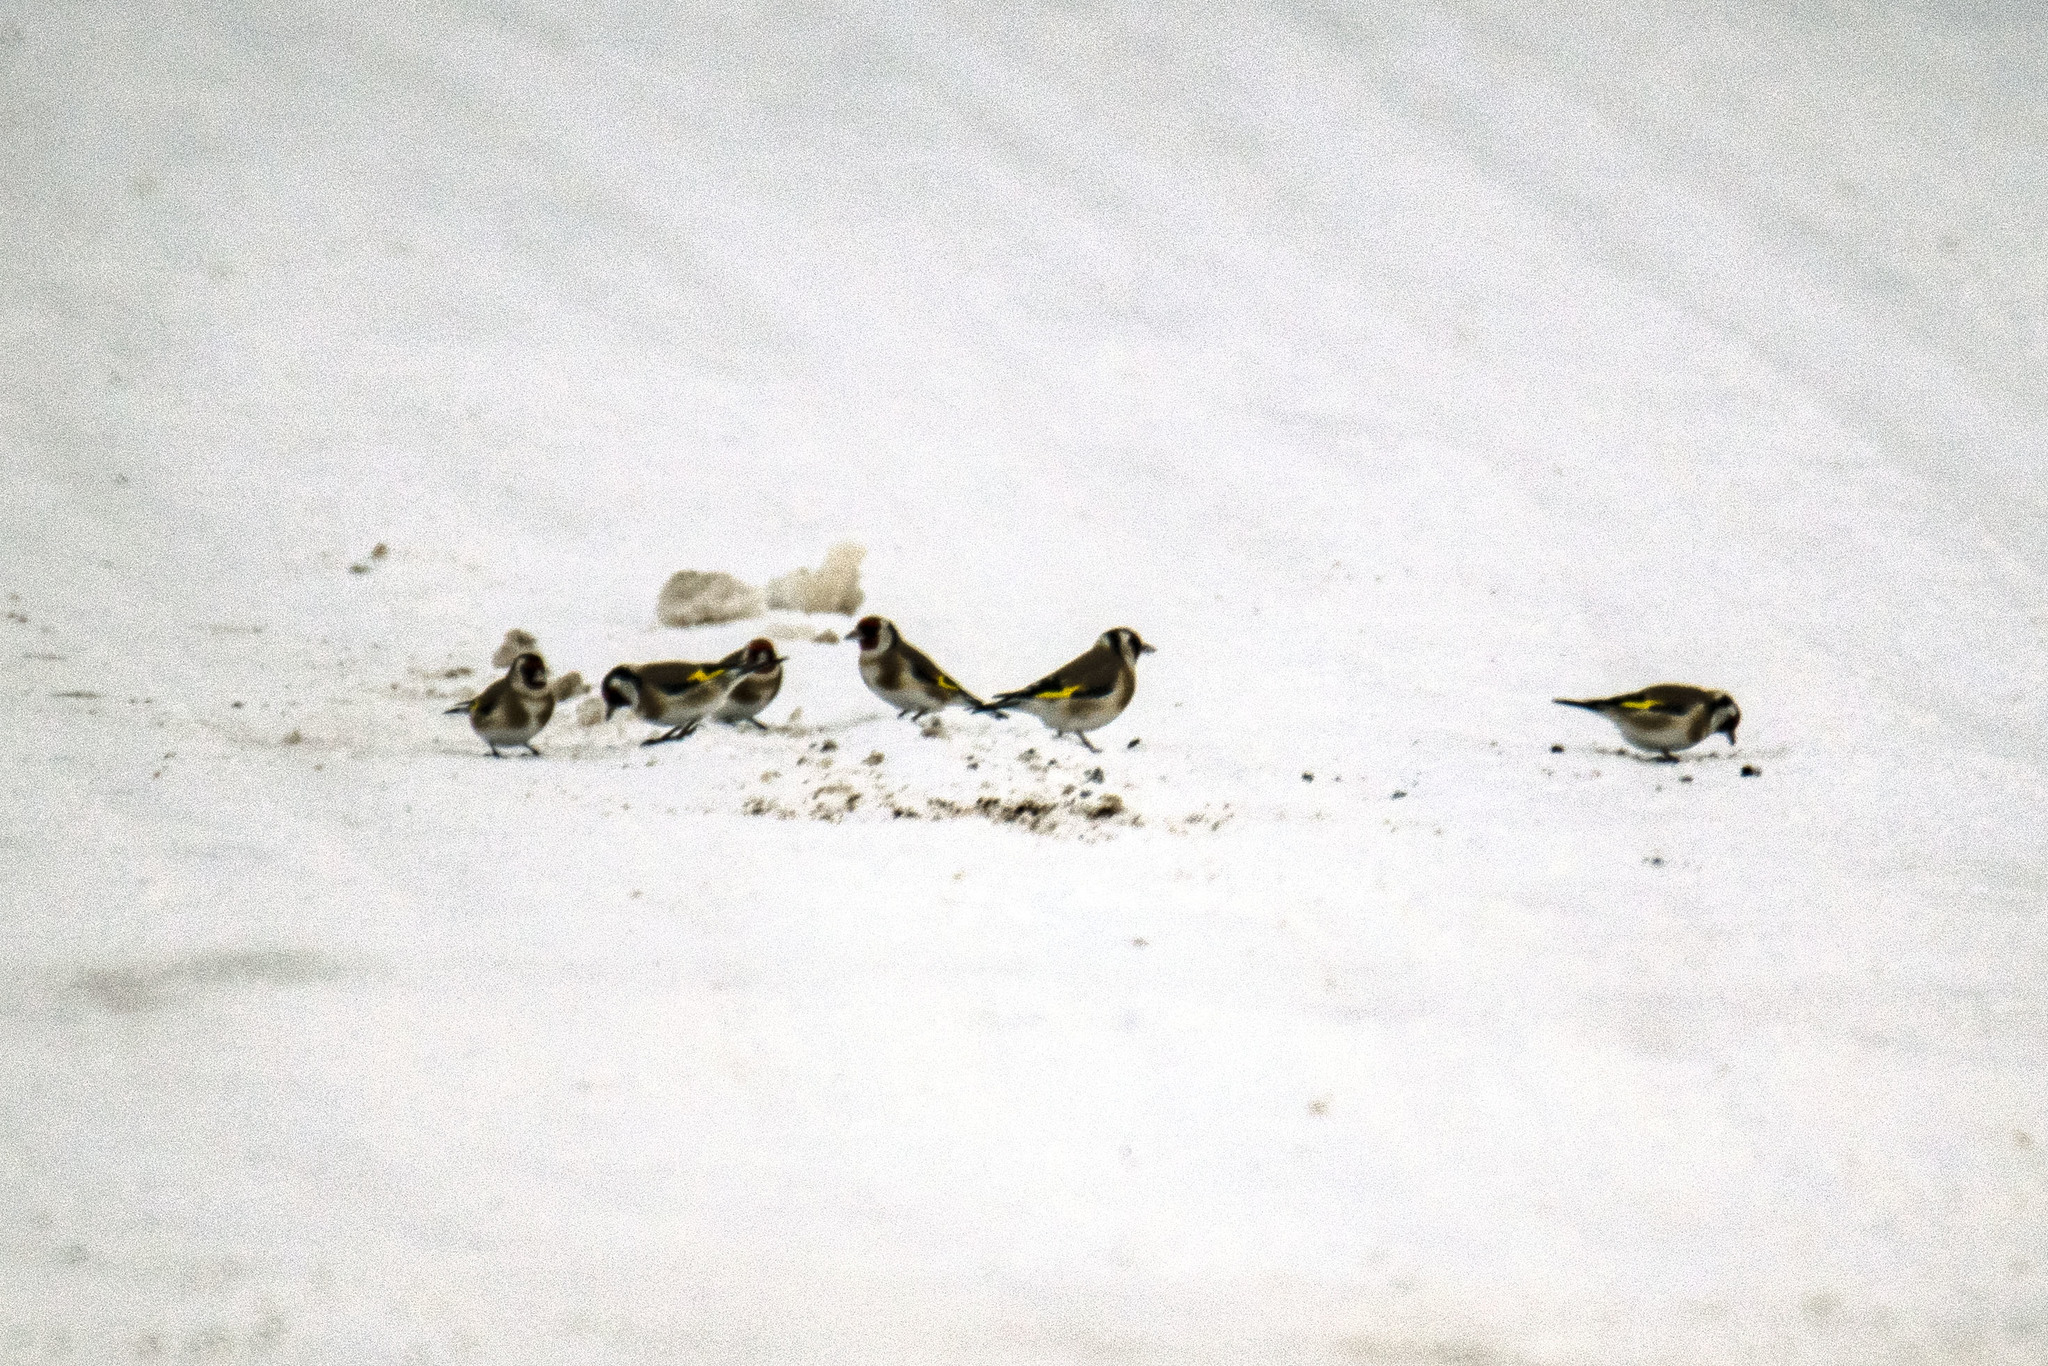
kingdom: Animalia
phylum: Chordata
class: Aves
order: Passeriformes
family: Fringillidae
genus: Carduelis
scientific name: Carduelis carduelis
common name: European goldfinch
